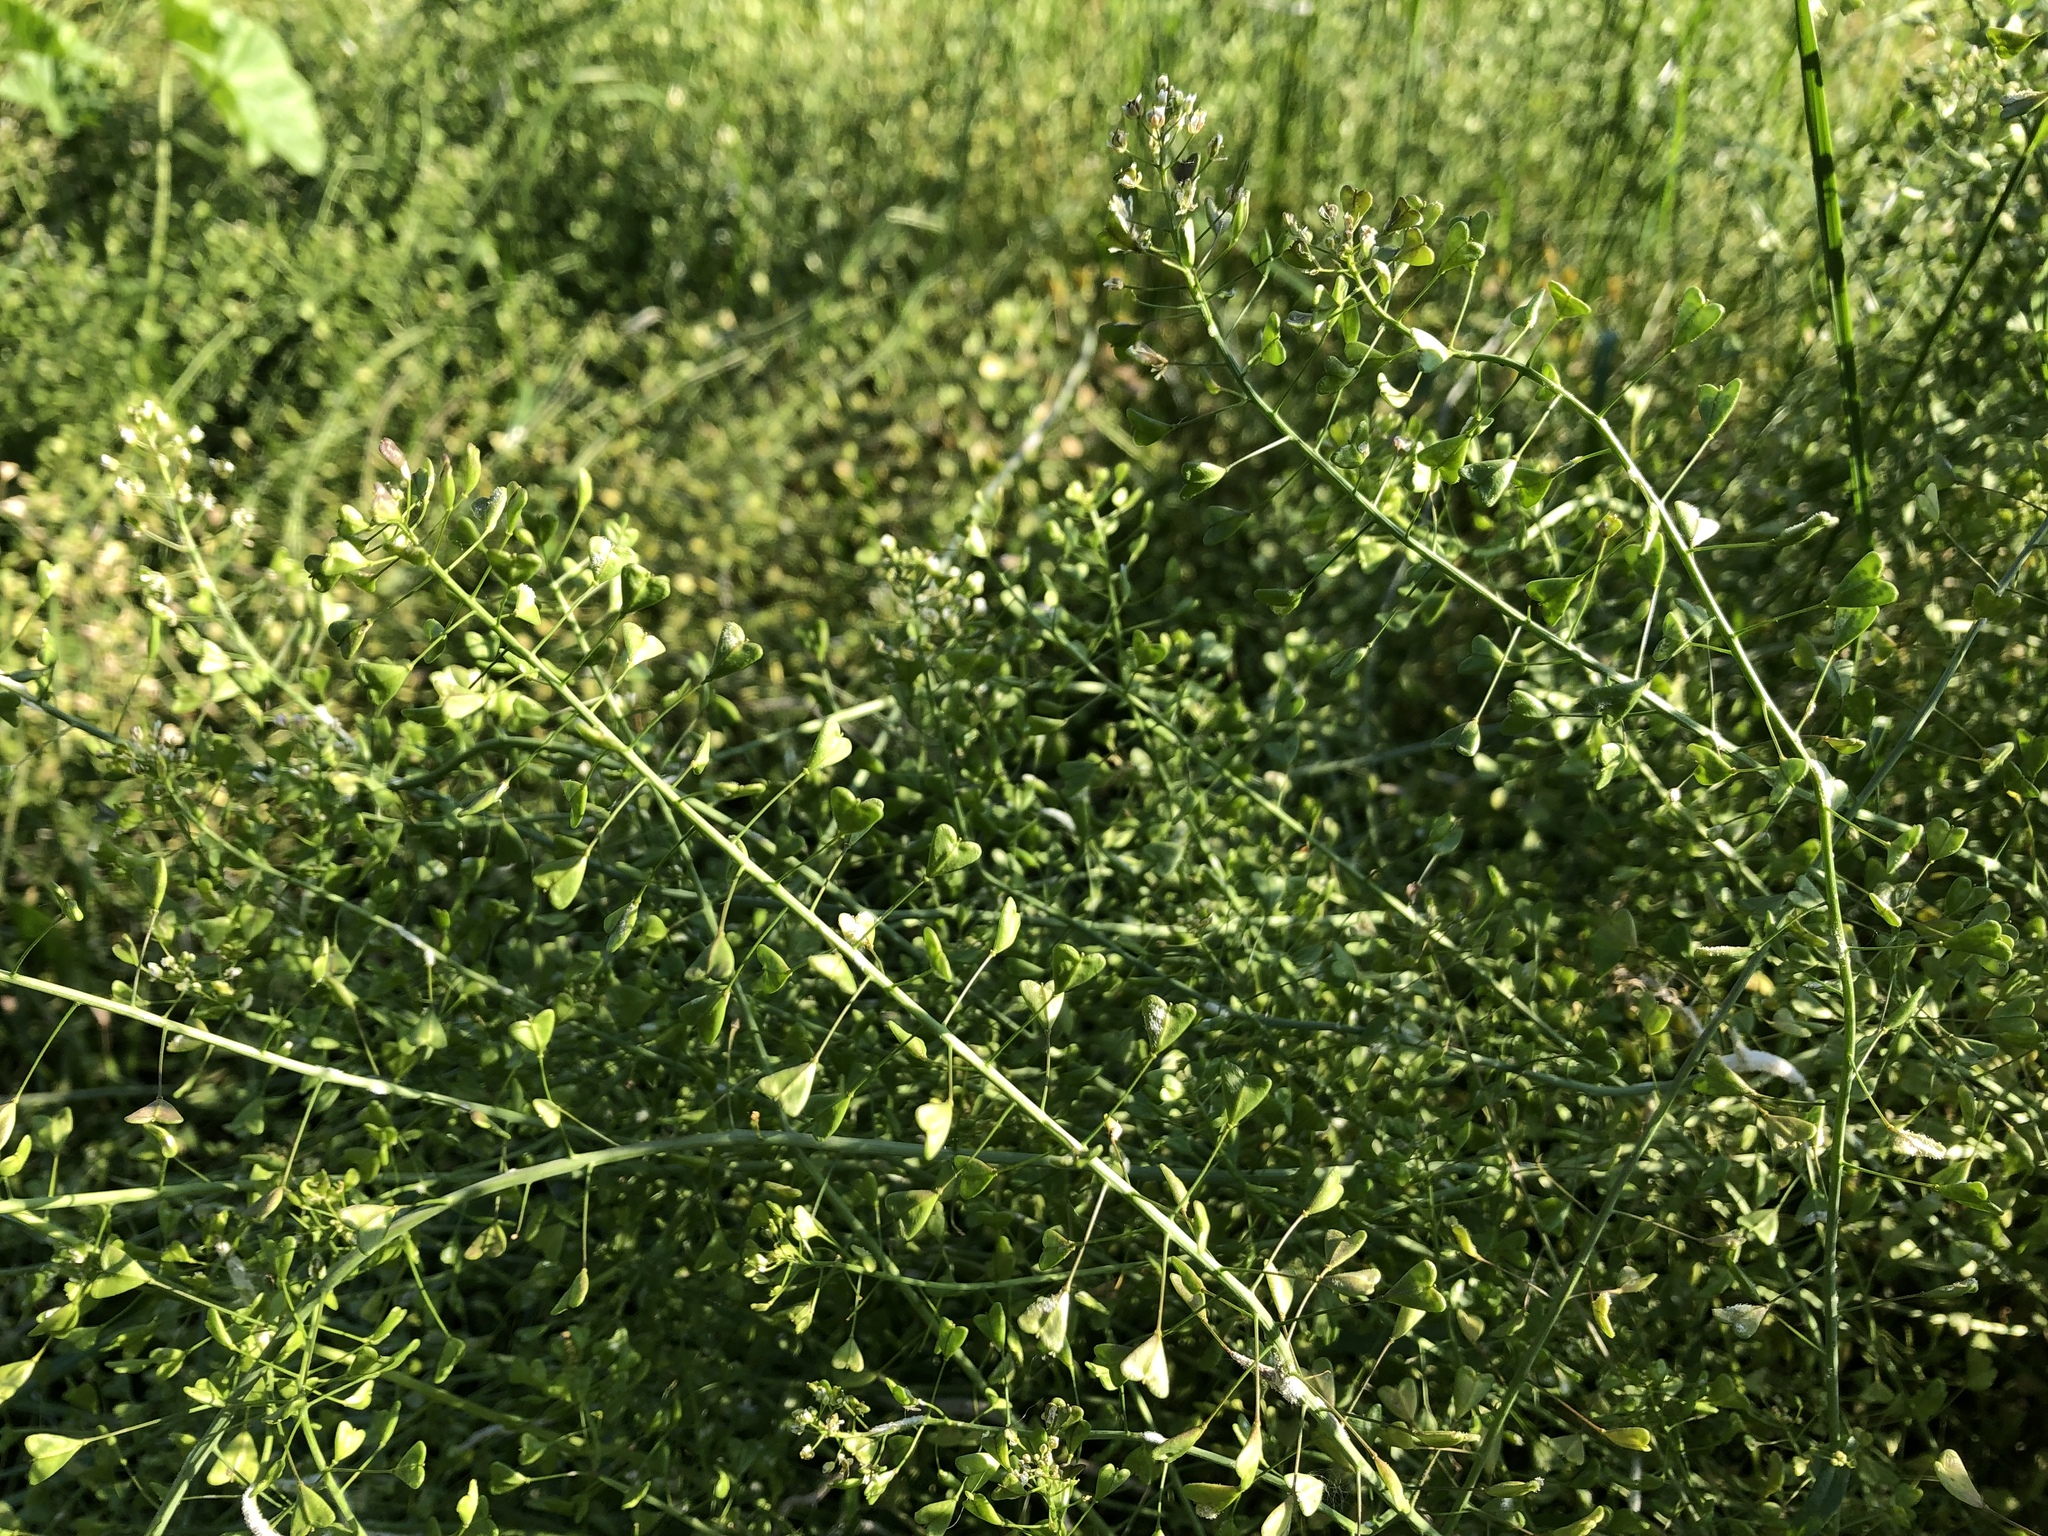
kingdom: Plantae
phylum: Tracheophyta
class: Magnoliopsida
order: Brassicales
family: Brassicaceae
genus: Capsella
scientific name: Capsella bursa-pastoris
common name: Shepherd's purse
